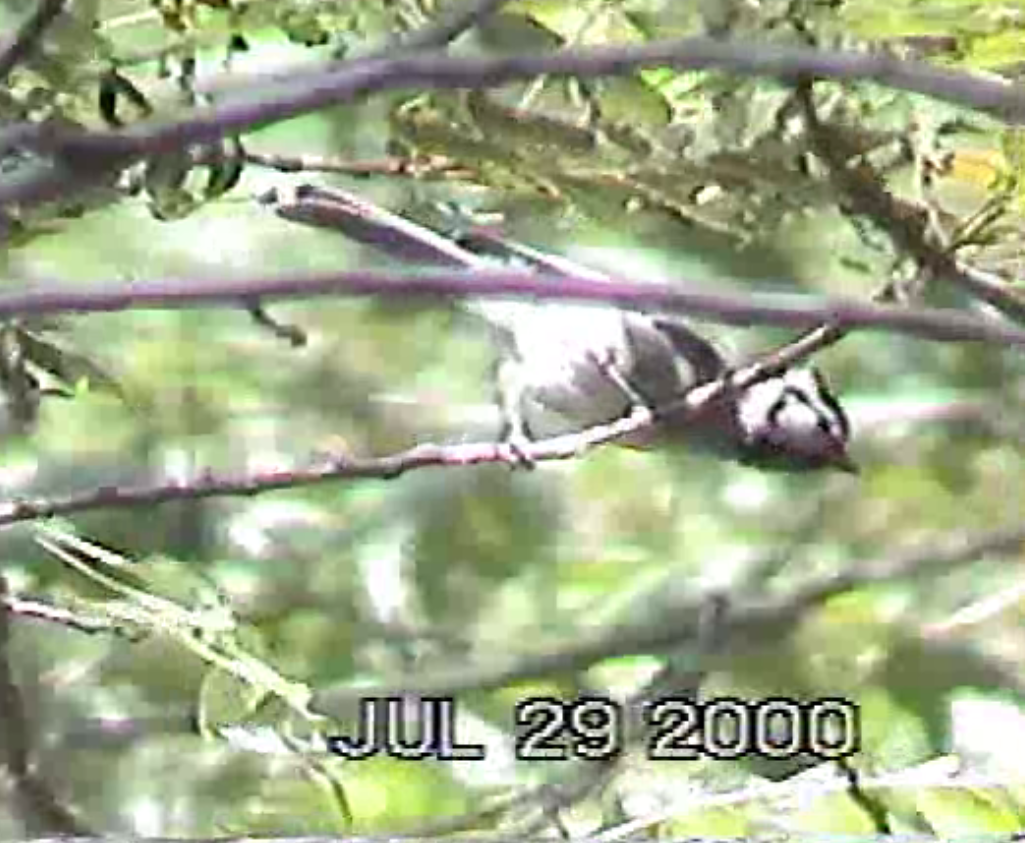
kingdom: Animalia
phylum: Chordata
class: Aves
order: Passeriformes
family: Paridae
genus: Baeolophus
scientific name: Baeolophus wollweberi
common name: Bridled titmouse
